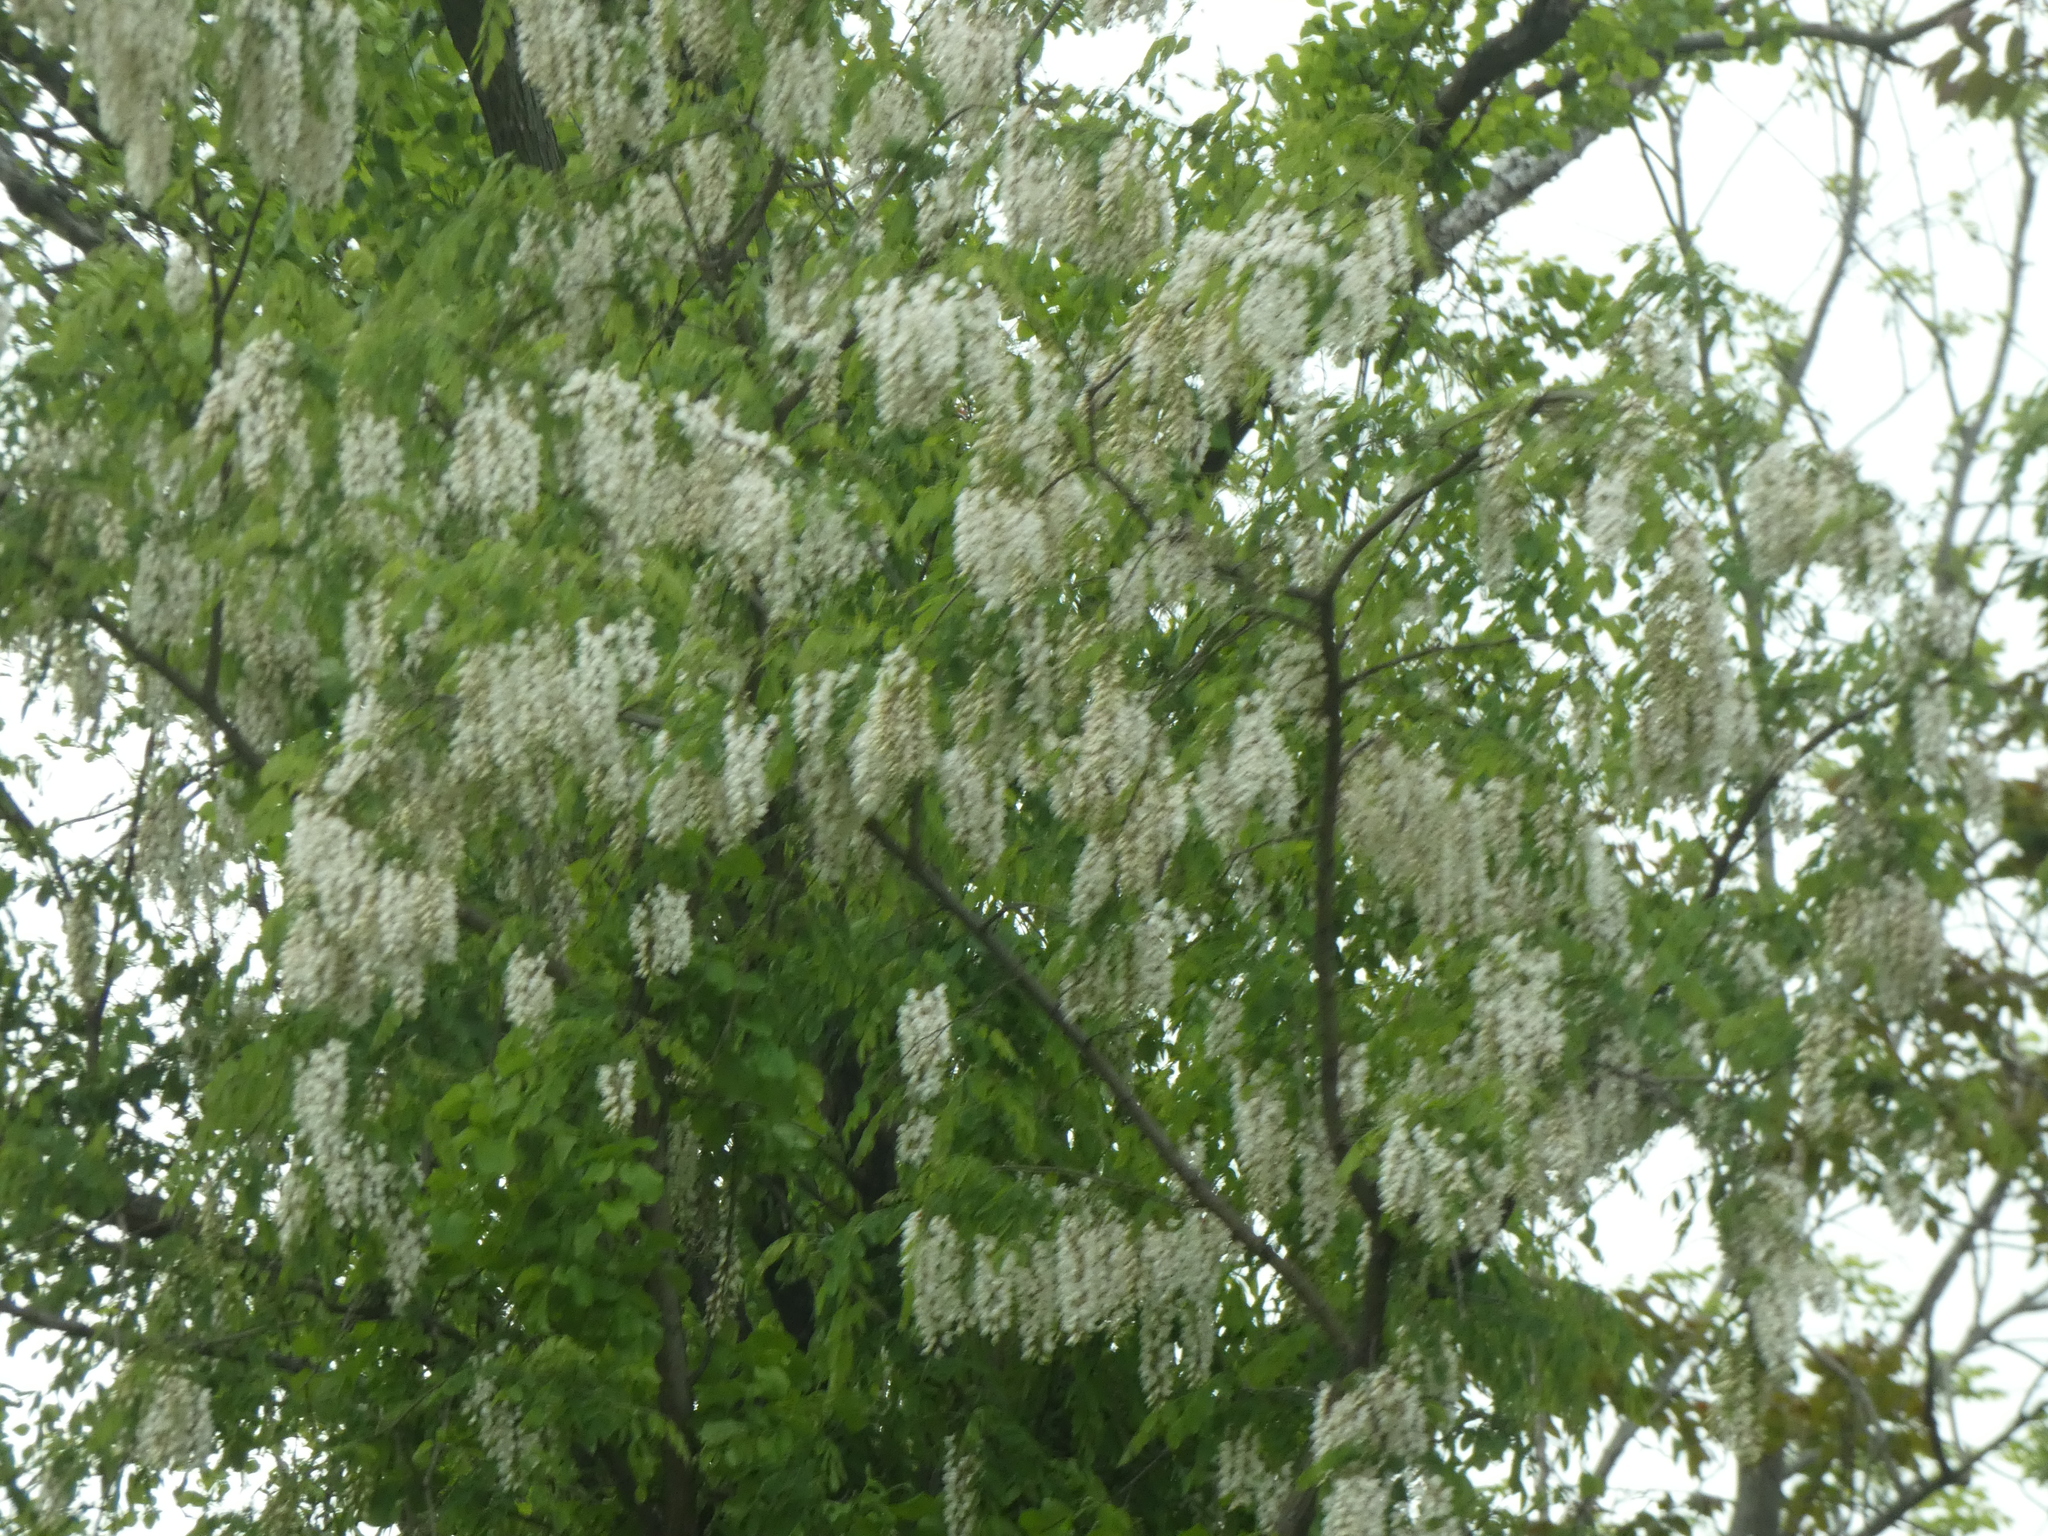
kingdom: Plantae
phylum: Tracheophyta
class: Magnoliopsida
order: Fabales
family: Fabaceae
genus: Robinia
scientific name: Robinia pseudoacacia
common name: Black locust
